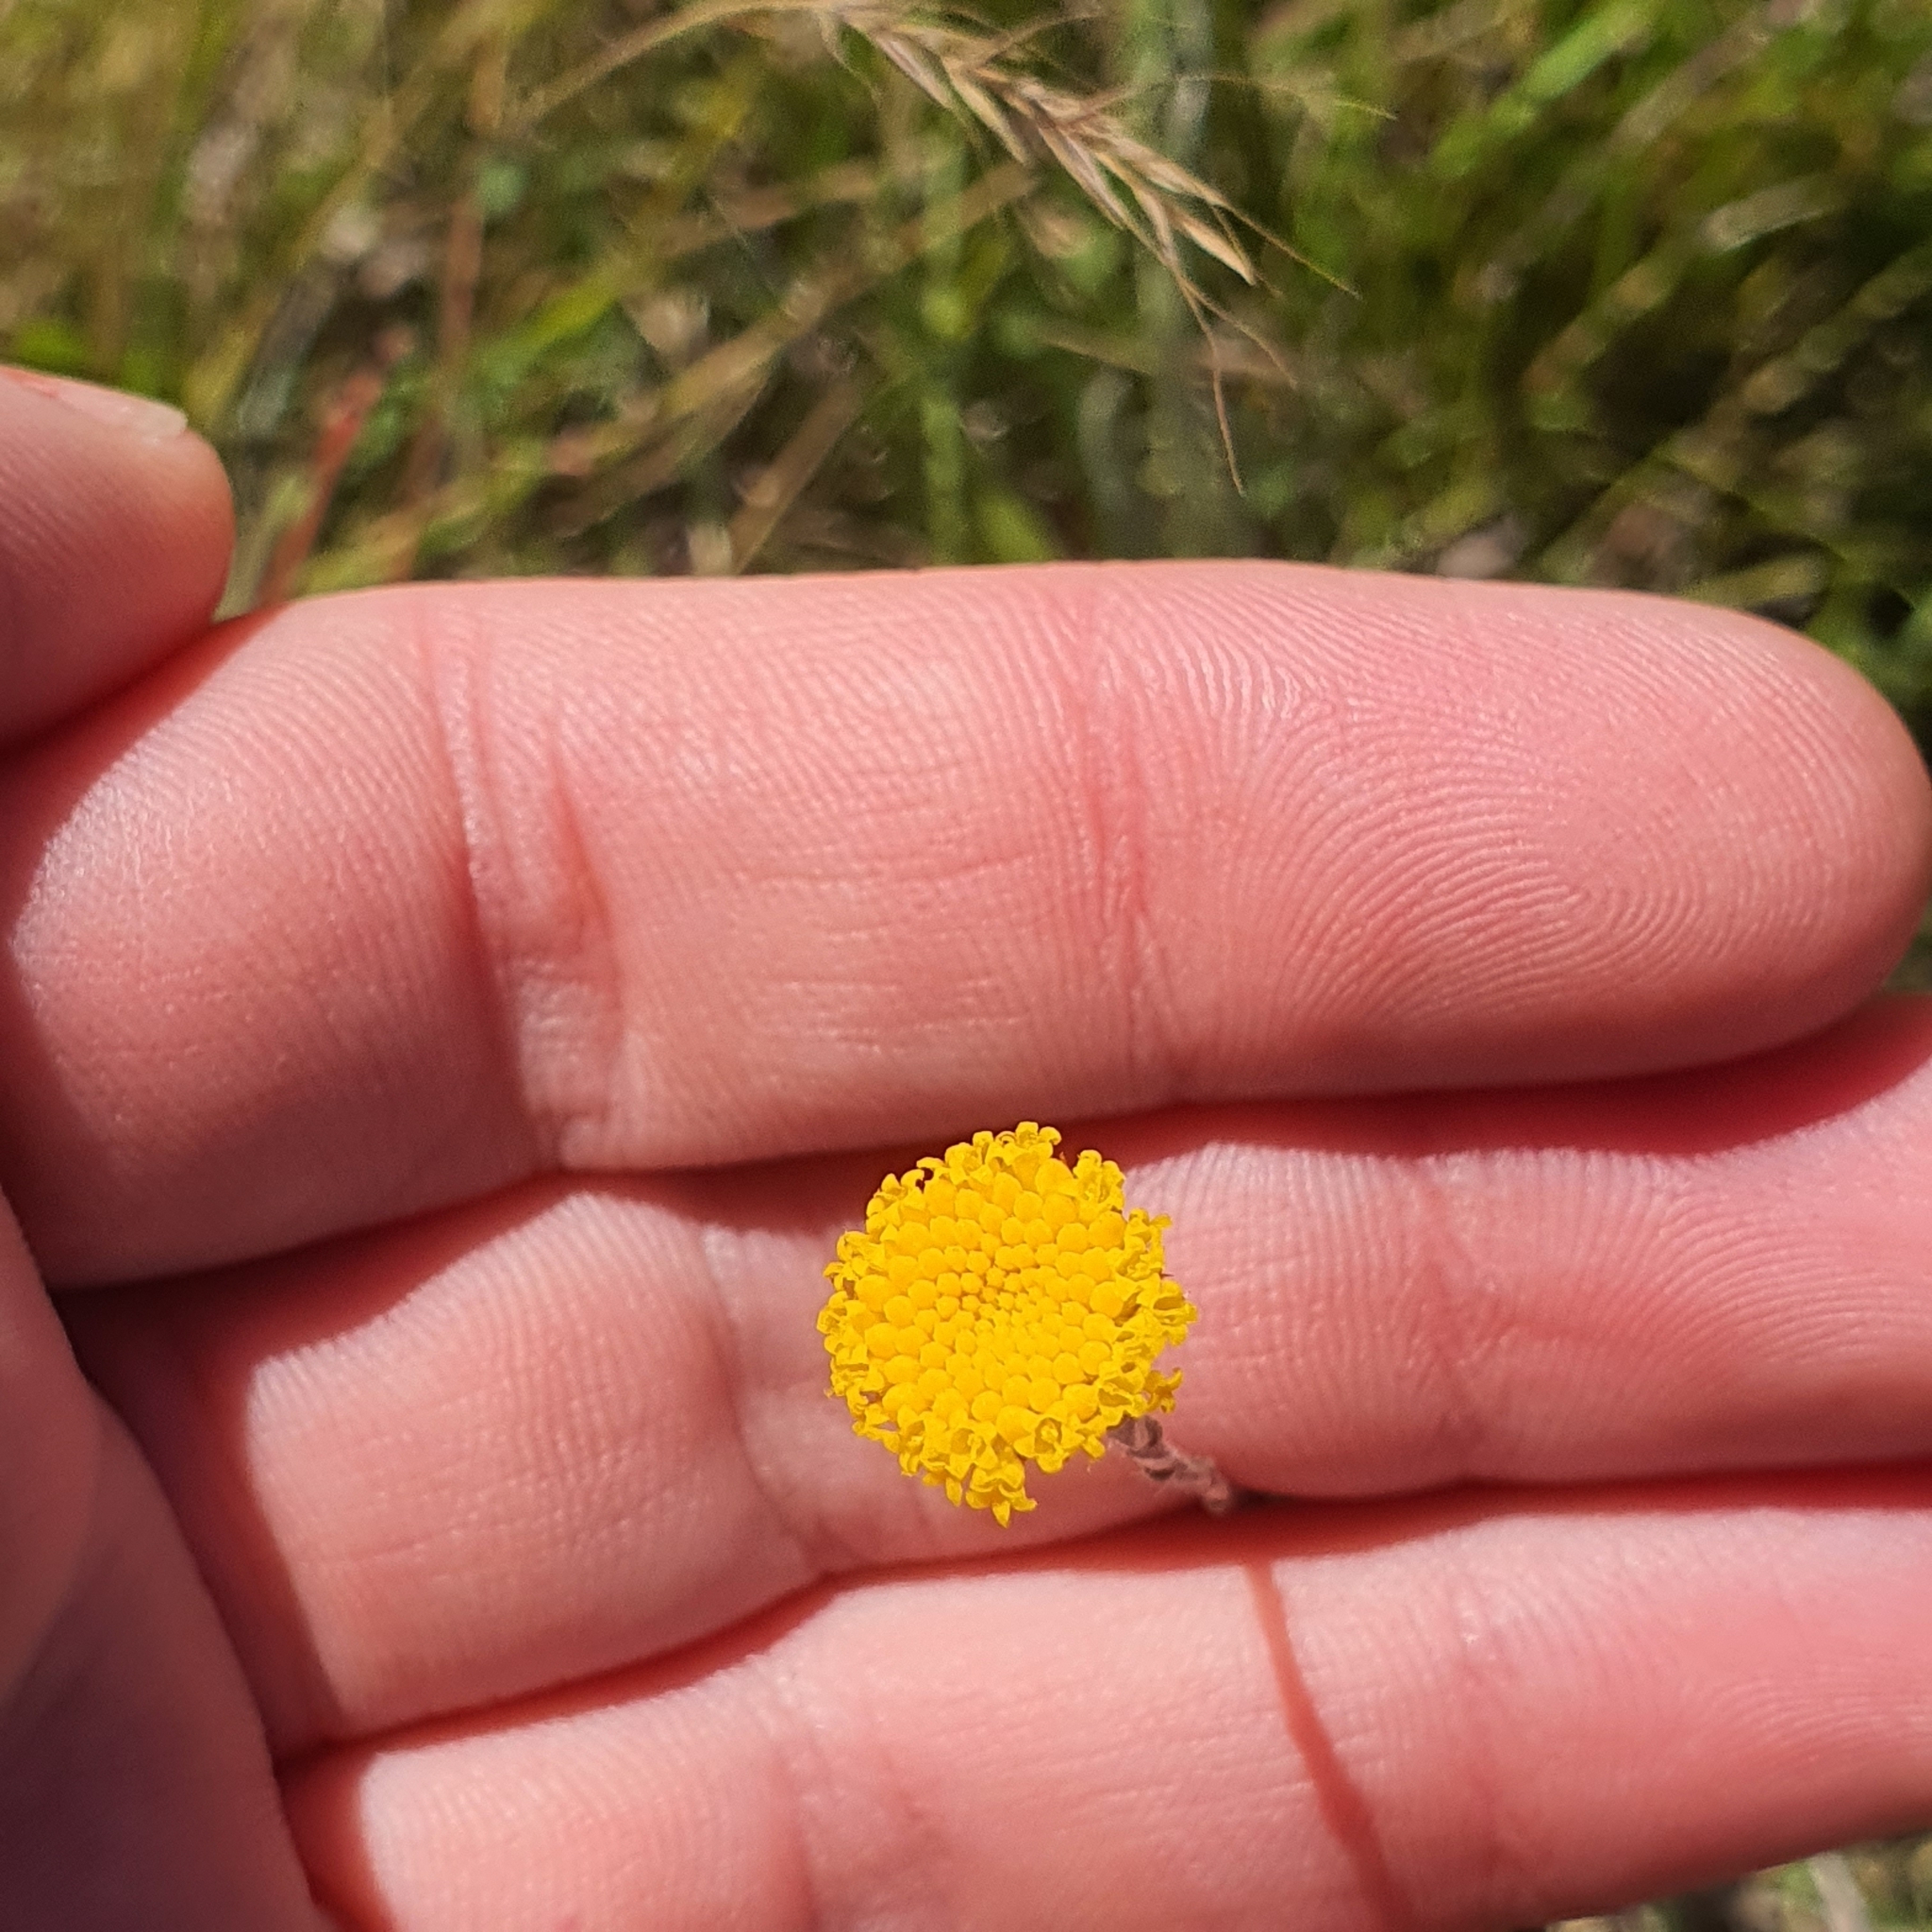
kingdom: Plantae
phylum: Tracheophyta
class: Magnoliopsida
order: Asterales
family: Asteraceae
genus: Leptorhynchos
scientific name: Leptorhynchos squamatus
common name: Scaly-buttons
